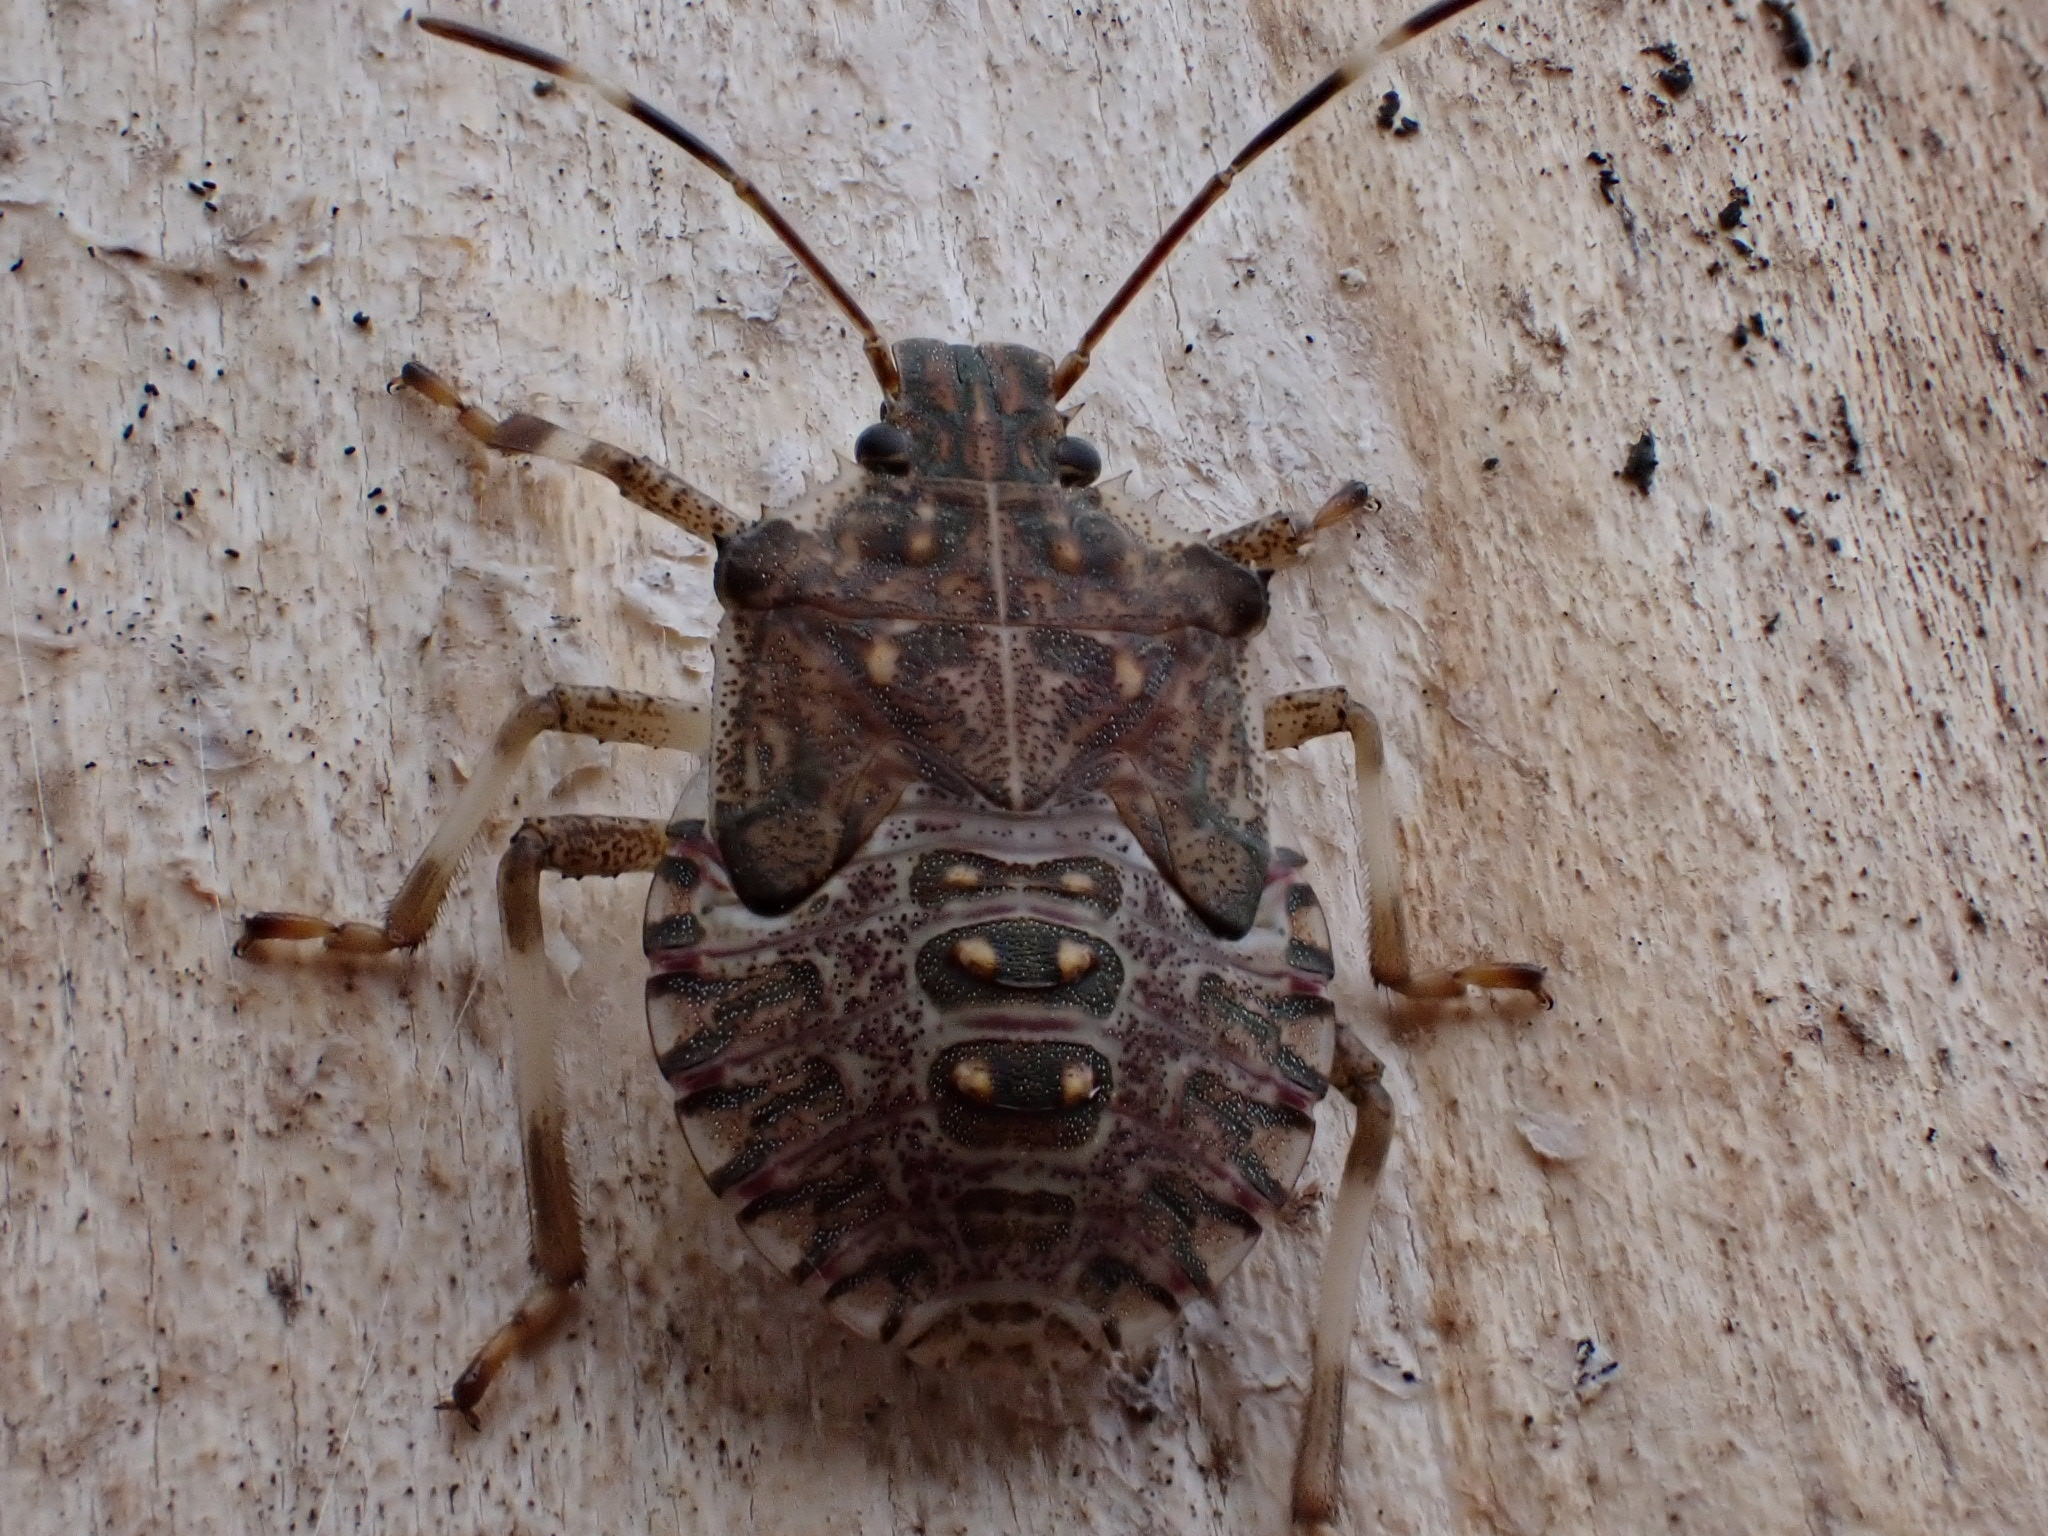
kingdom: Animalia
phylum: Arthropoda
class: Insecta
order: Hemiptera
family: Pentatomidae
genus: Halyomorpha
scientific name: Halyomorpha halys
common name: Brown marmorated stink bug
